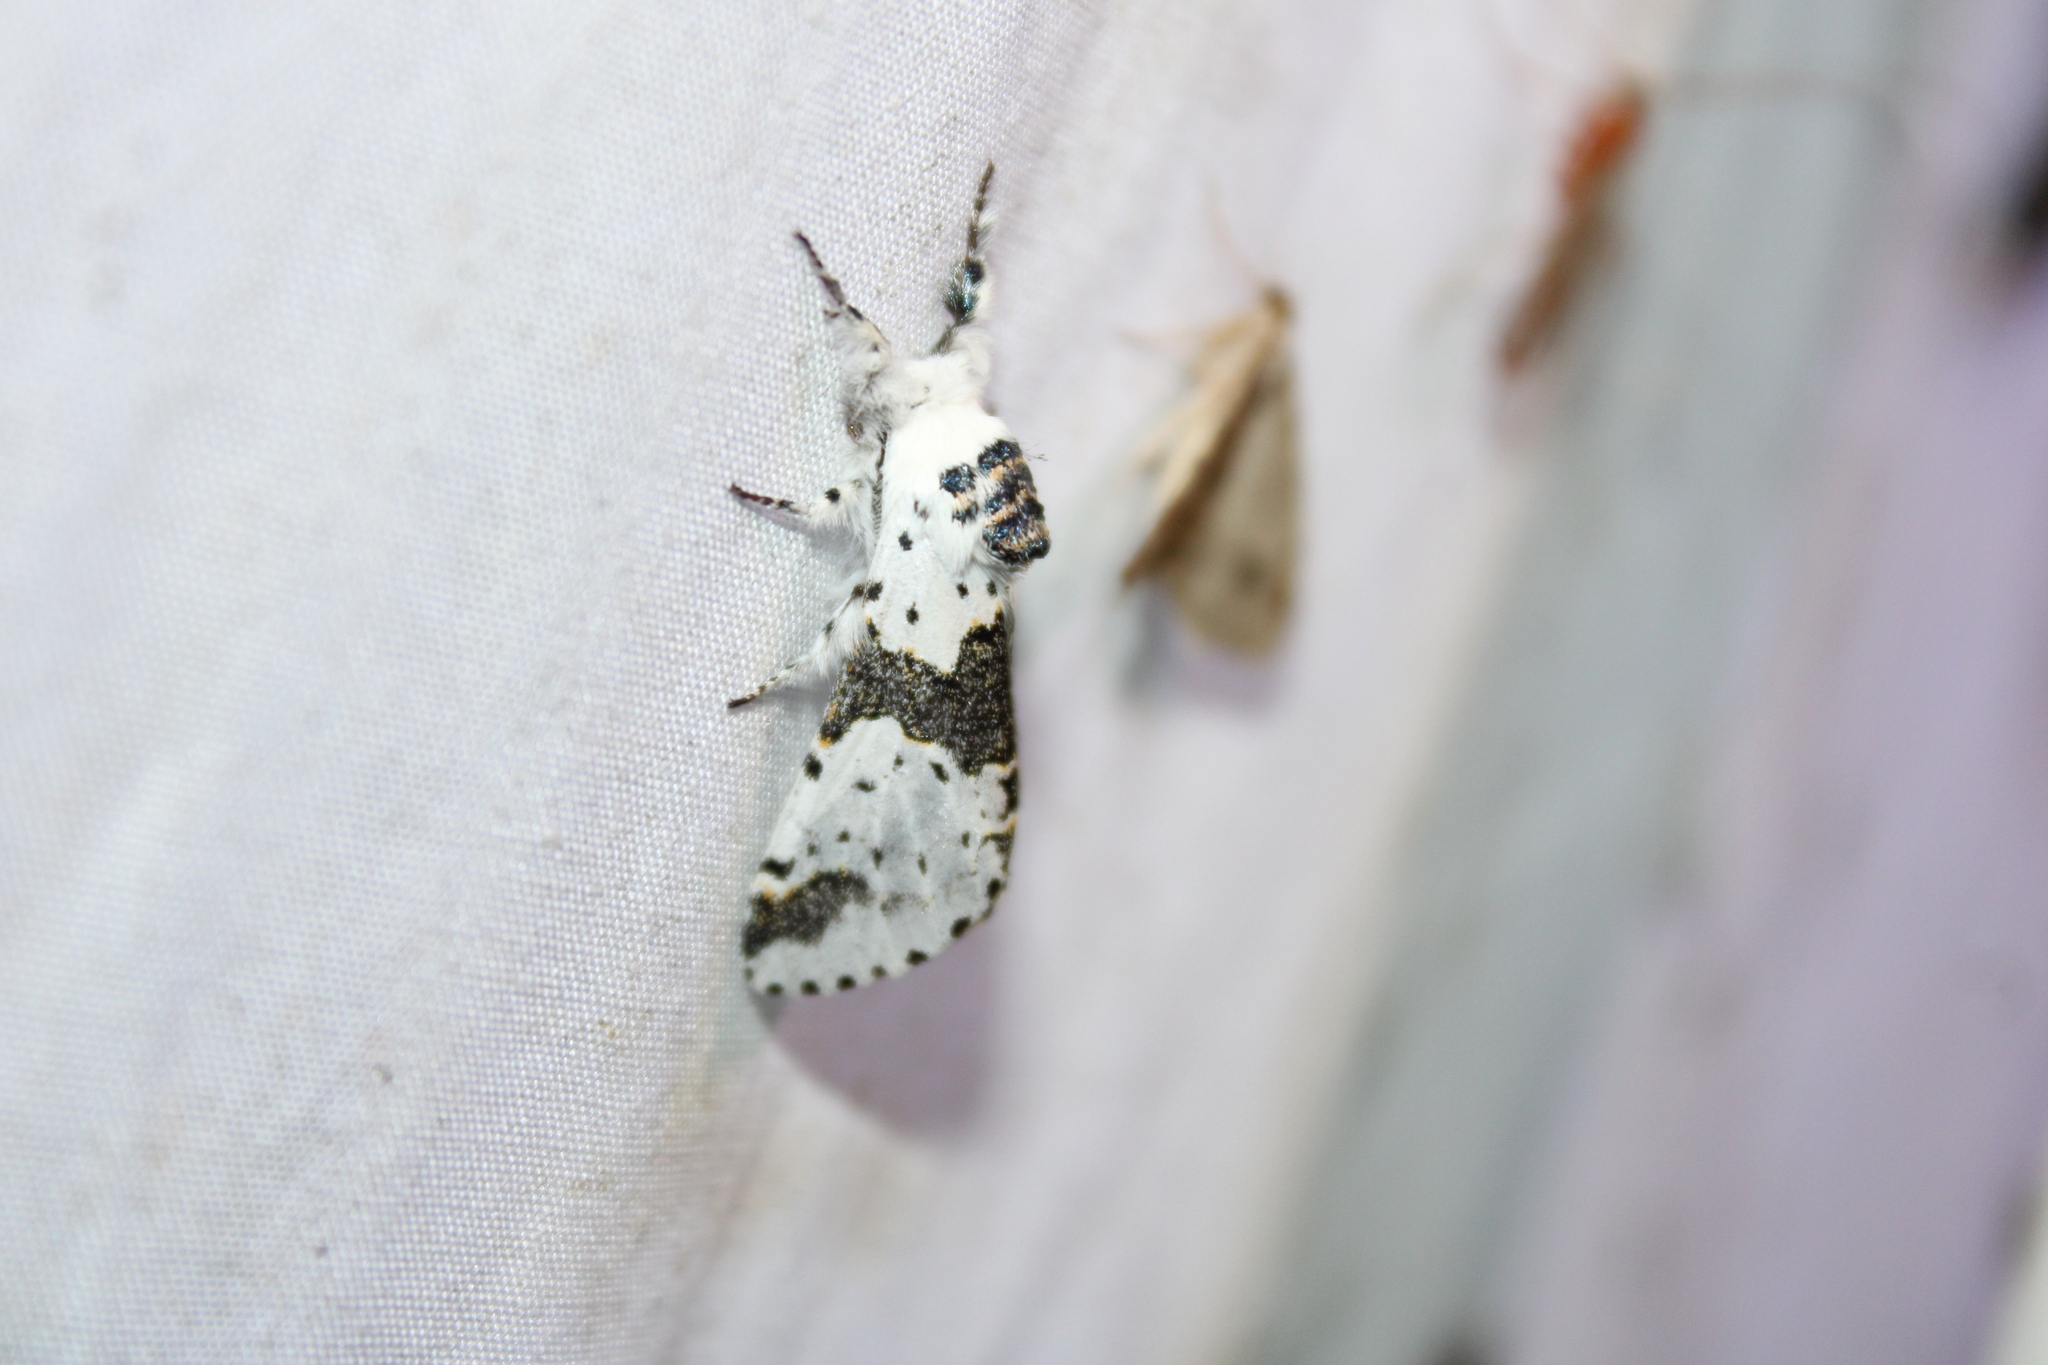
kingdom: Animalia
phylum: Arthropoda
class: Insecta
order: Lepidoptera
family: Notodontidae
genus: Furcula
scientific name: Furcula borealis
